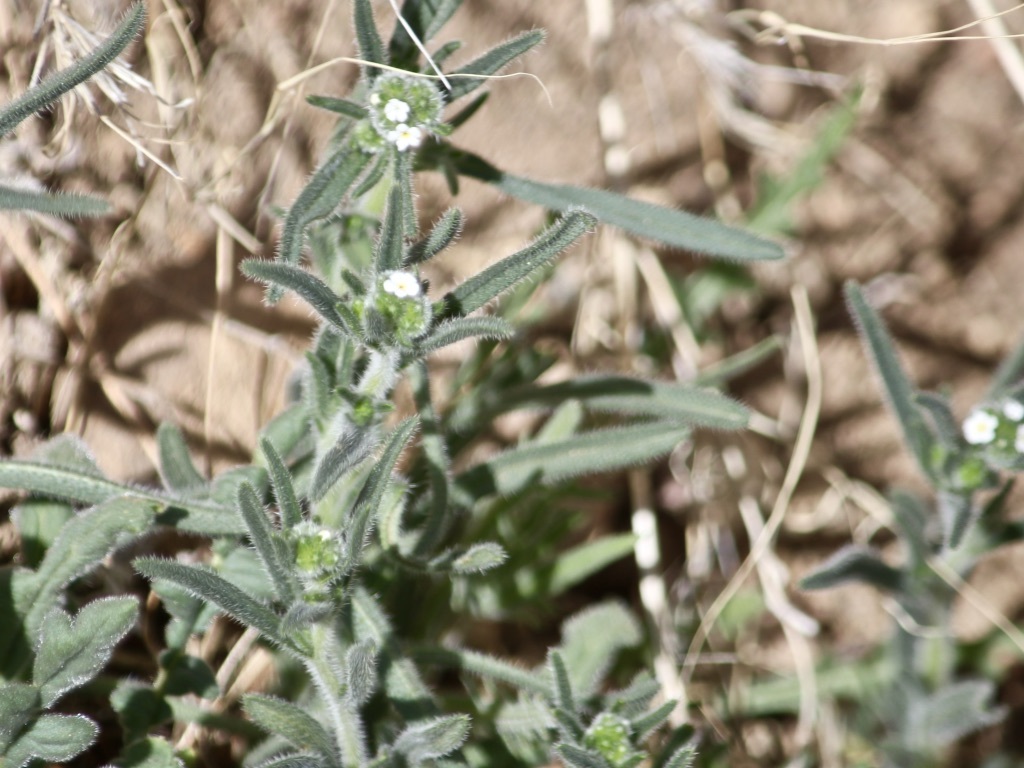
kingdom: Plantae
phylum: Tracheophyta
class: Magnoliopsida
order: Boraginales
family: Boraginaceae
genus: Lappula
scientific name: Lappula occidentalis
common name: Western stickseed
